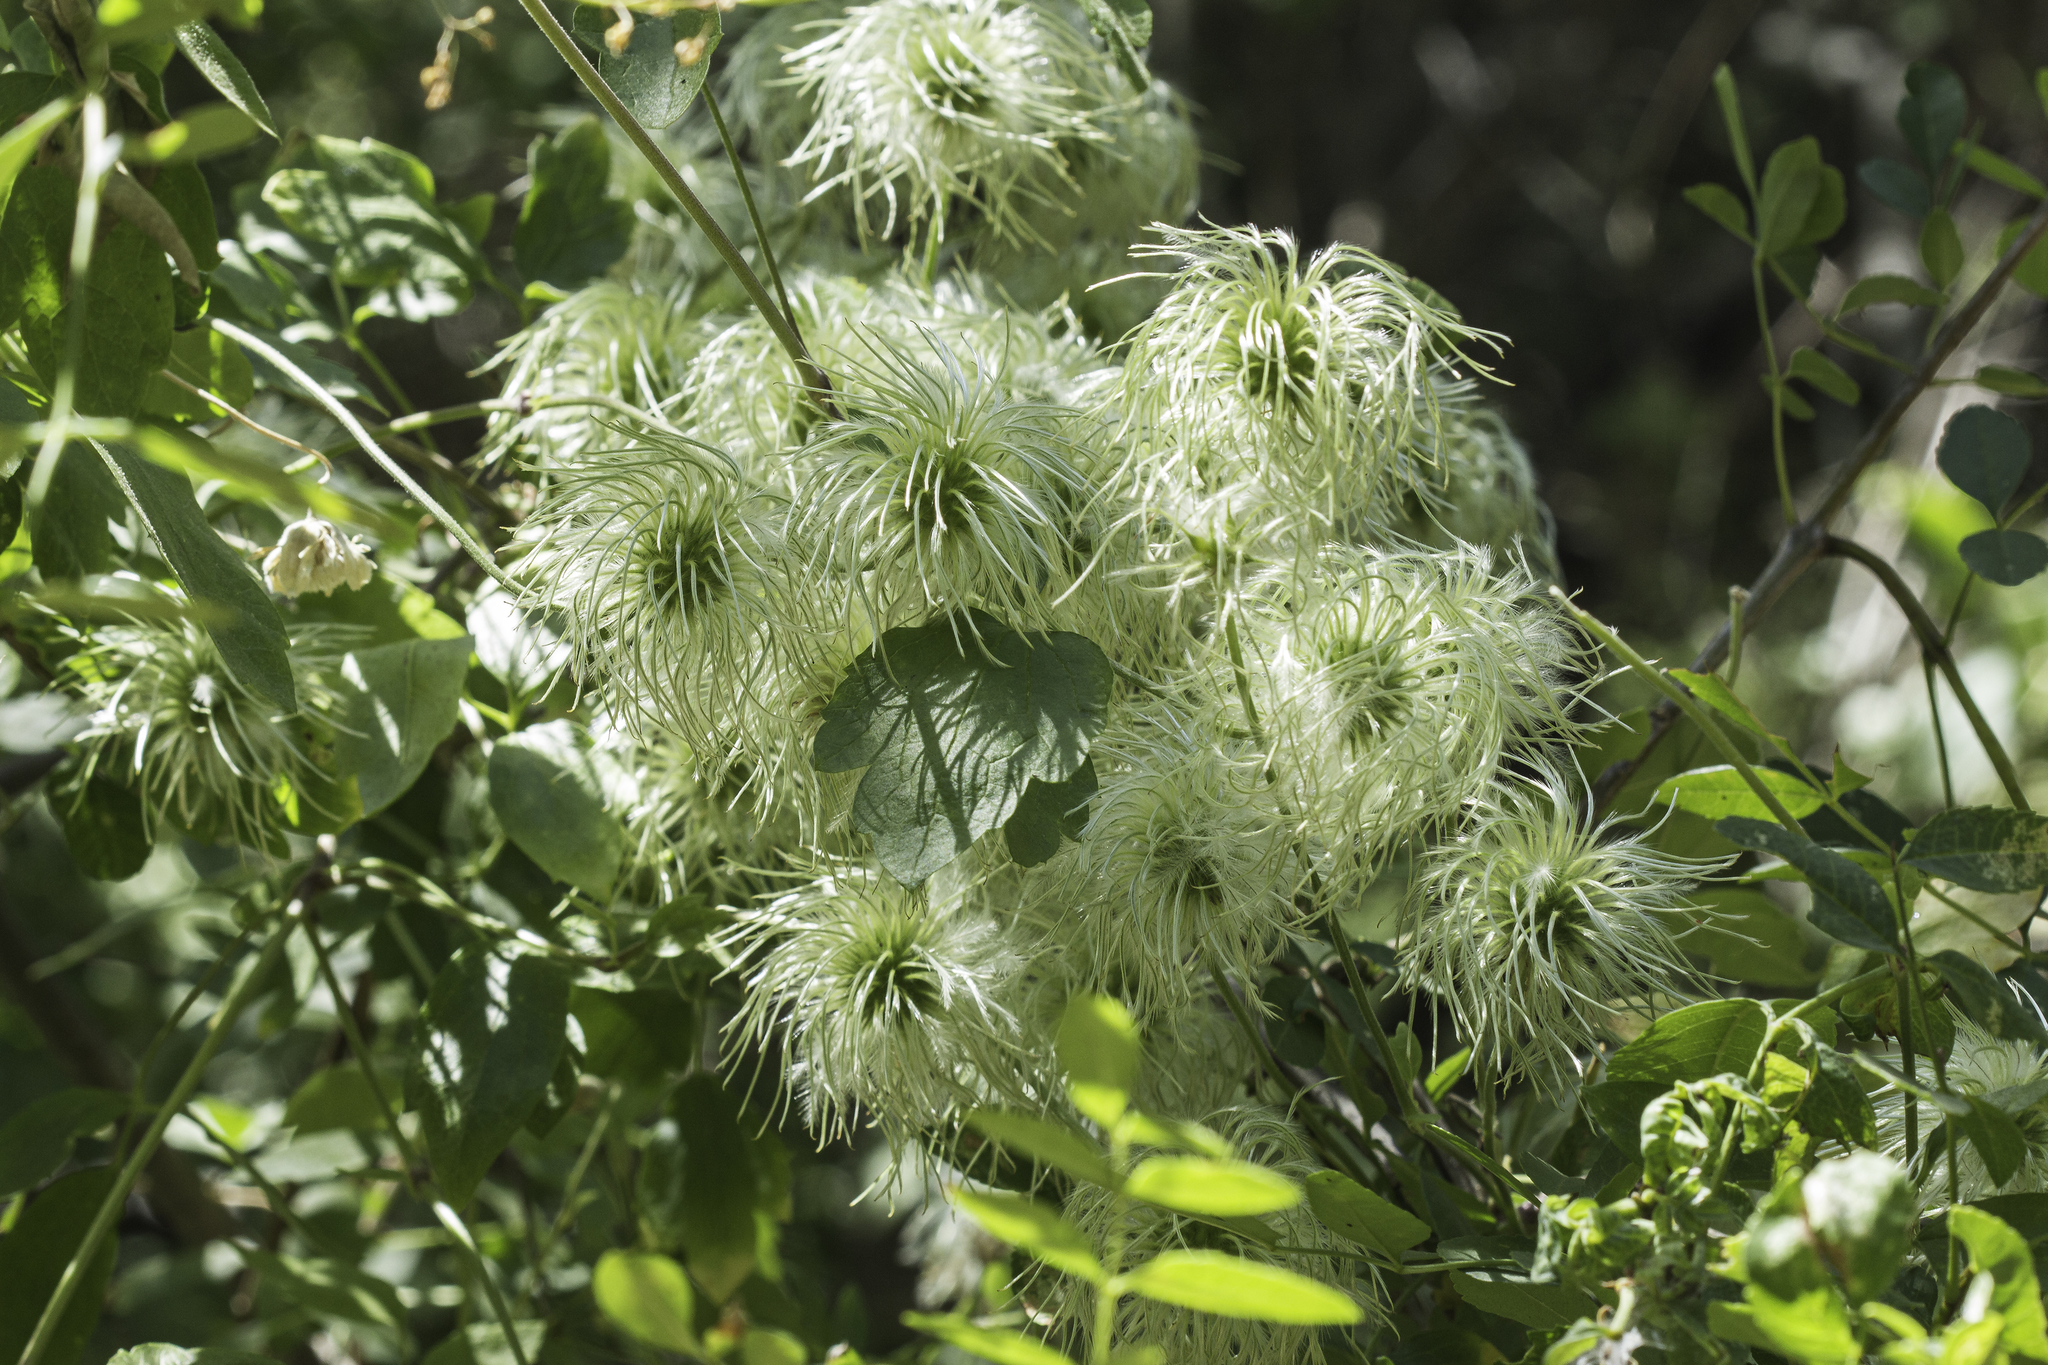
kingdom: Plantae
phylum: Tracheophyta
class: Magnoliopsida
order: Ranunculales
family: Ranunculaceae
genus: Clematis
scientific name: Clematis lasiantha
